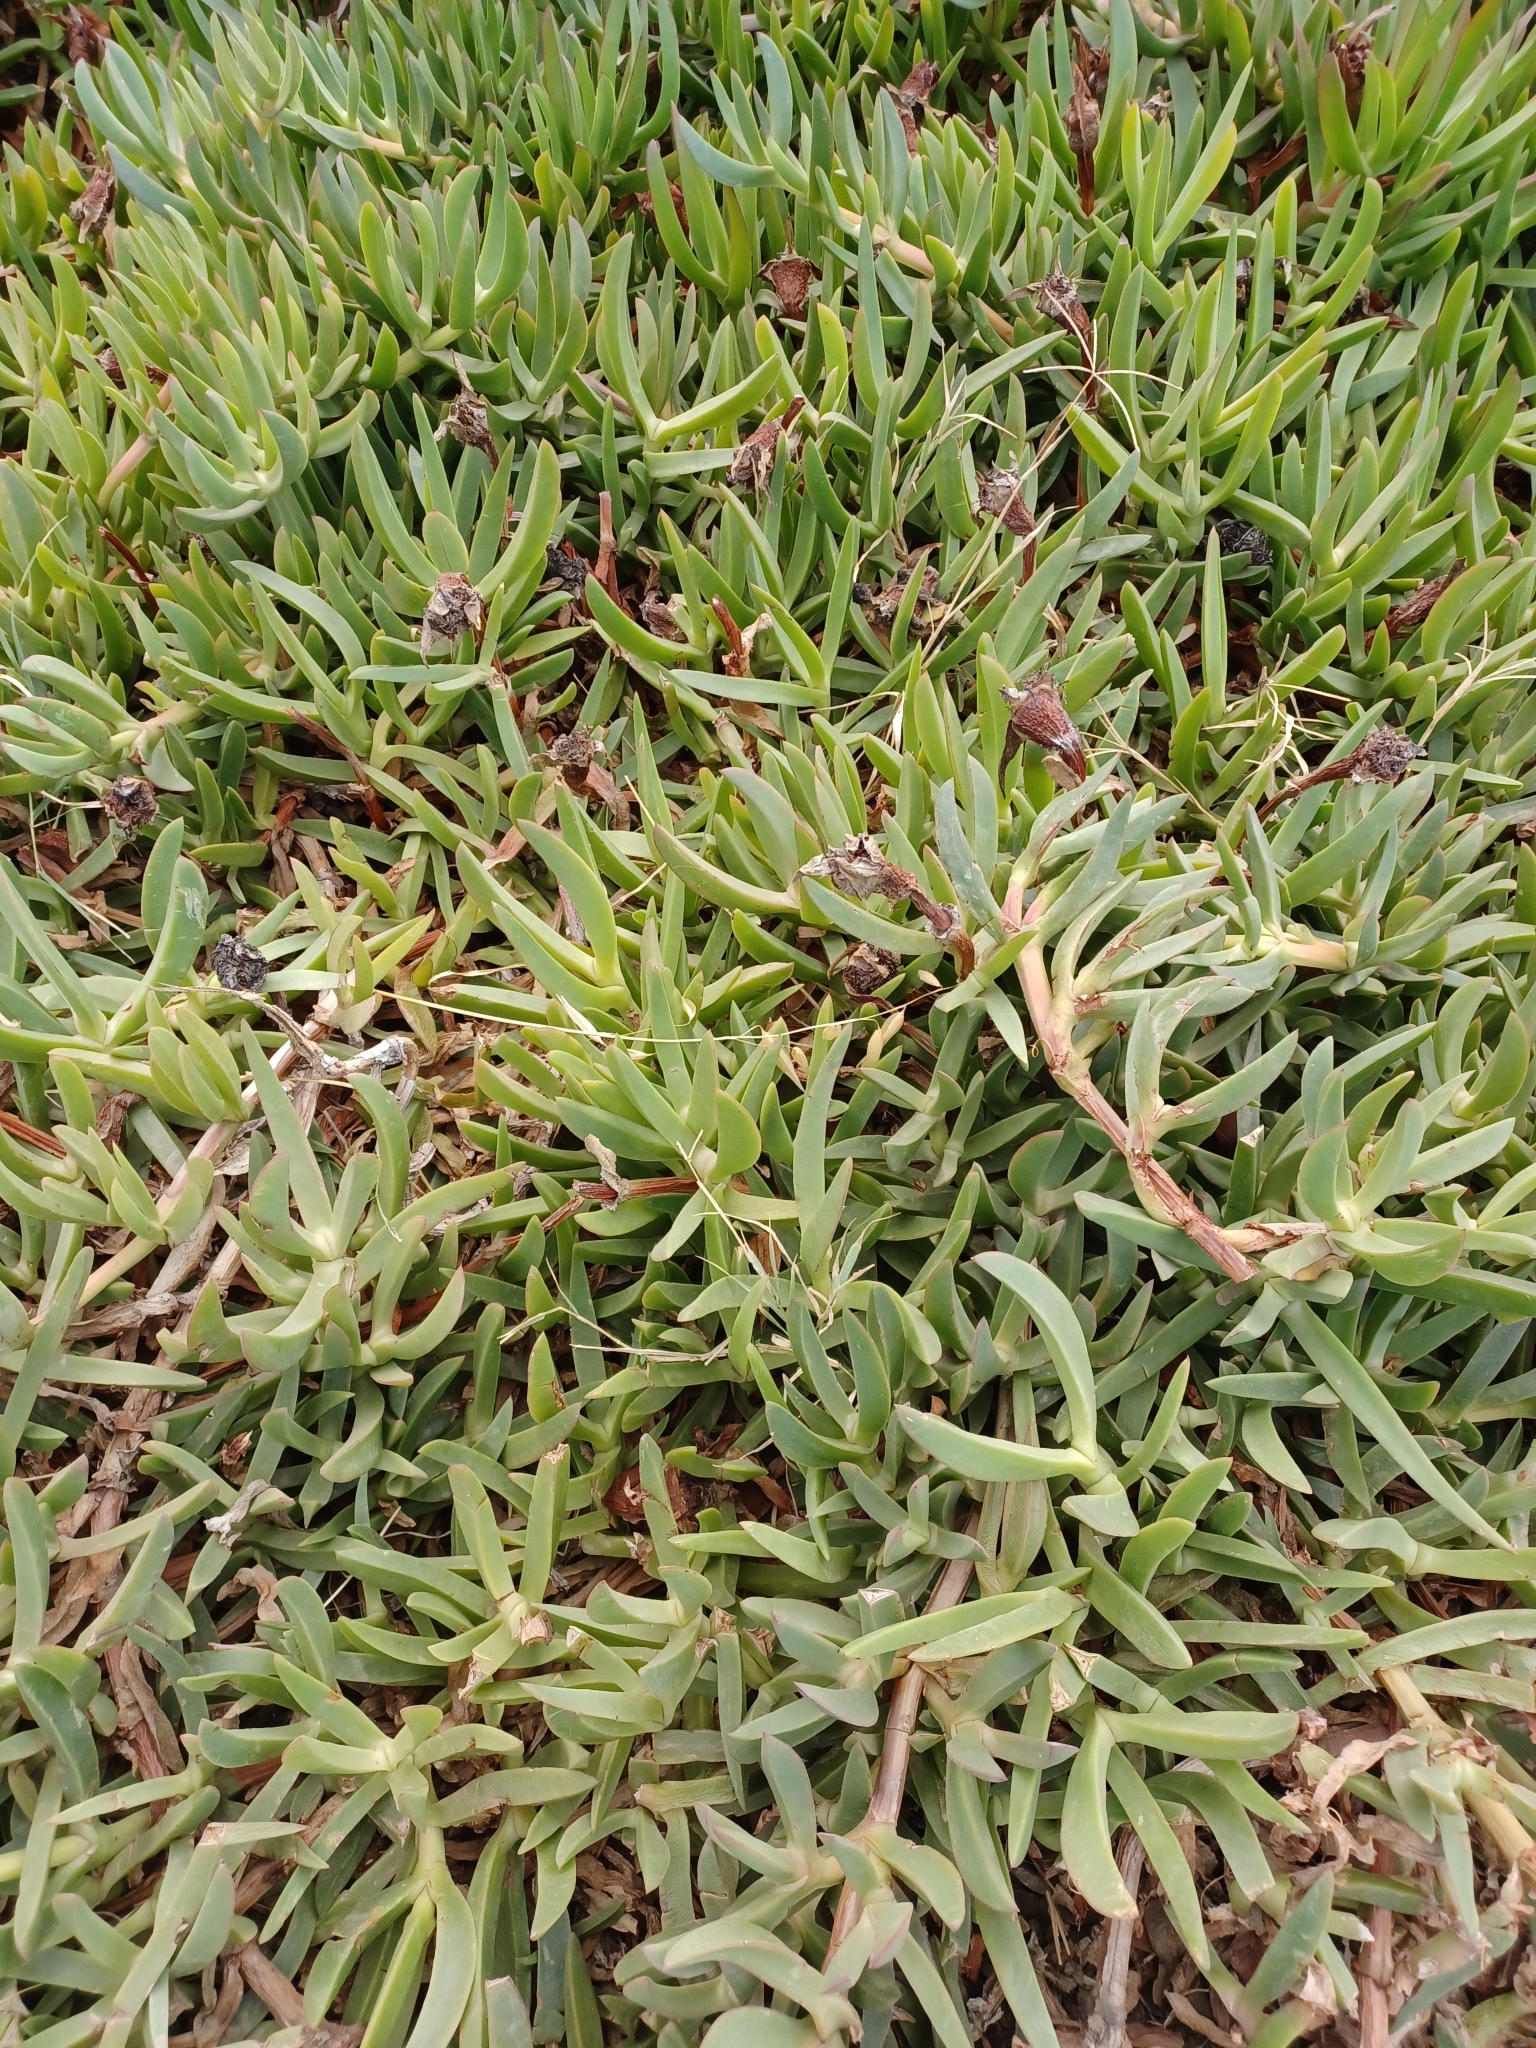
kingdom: Plantae
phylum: Tracheophyta
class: Magnoliopsida
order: Caryophyllales
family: Aizoaceae
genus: Carpobrotus
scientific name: Carpobrotus acinaciformis
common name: Sally-my-handsome
